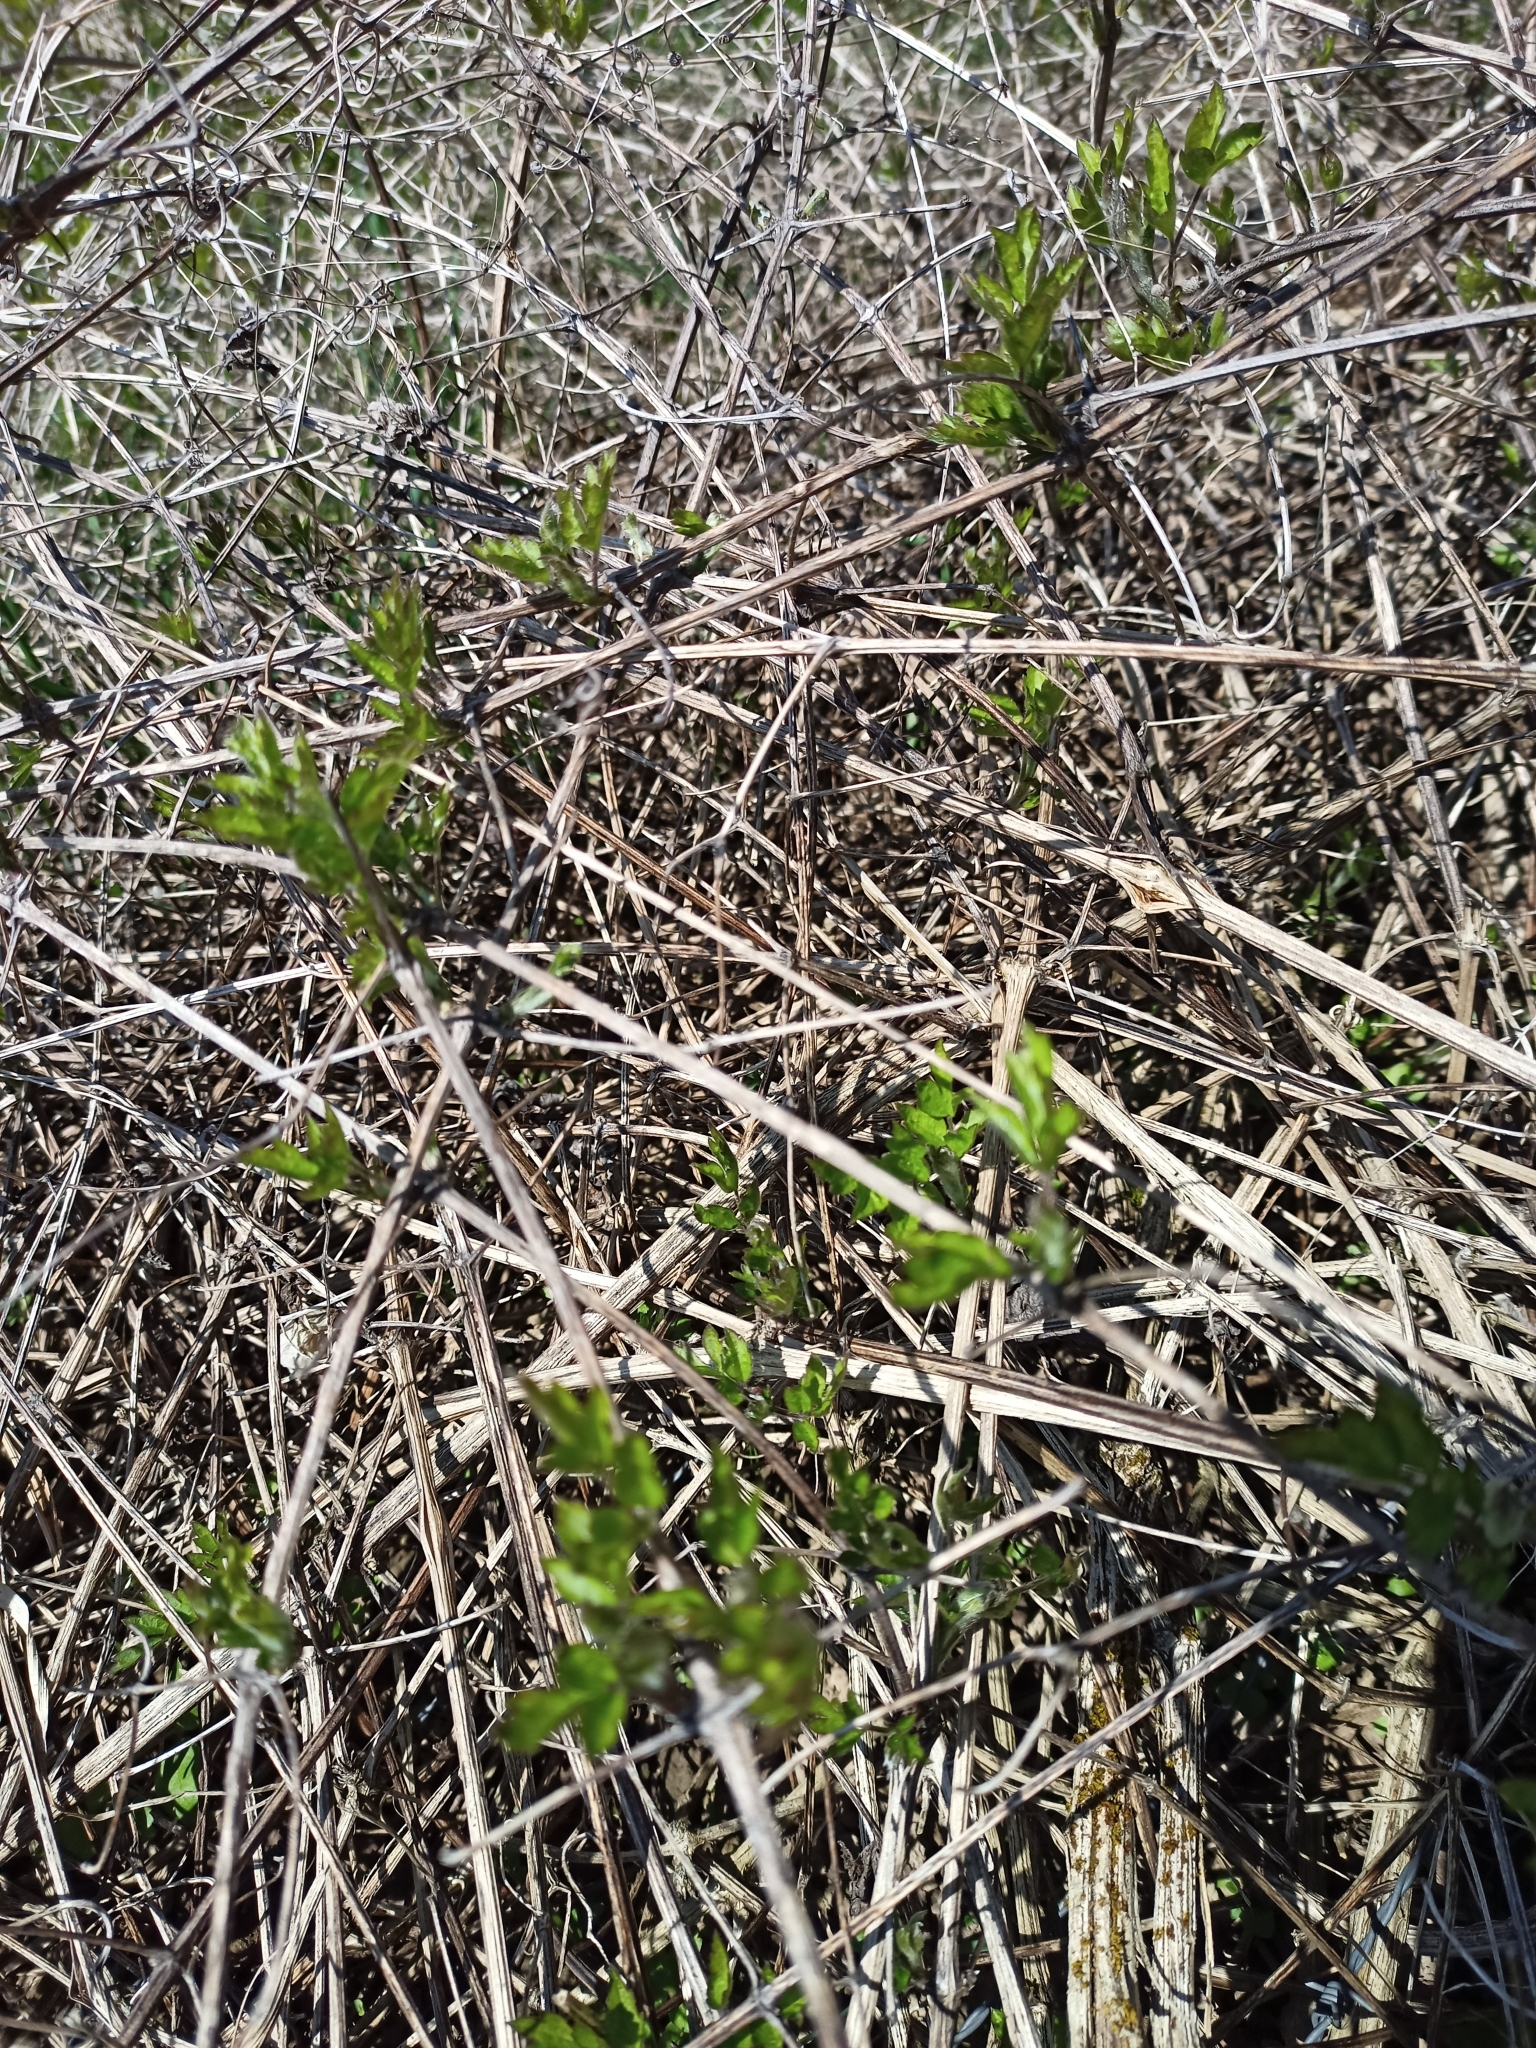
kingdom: Plantae
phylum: Tracheophyta
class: Magnoliopsida
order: Ranunculales
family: Ranunculaceae
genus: Clematis
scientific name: Clematis vitalba
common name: Evergreen clematis
